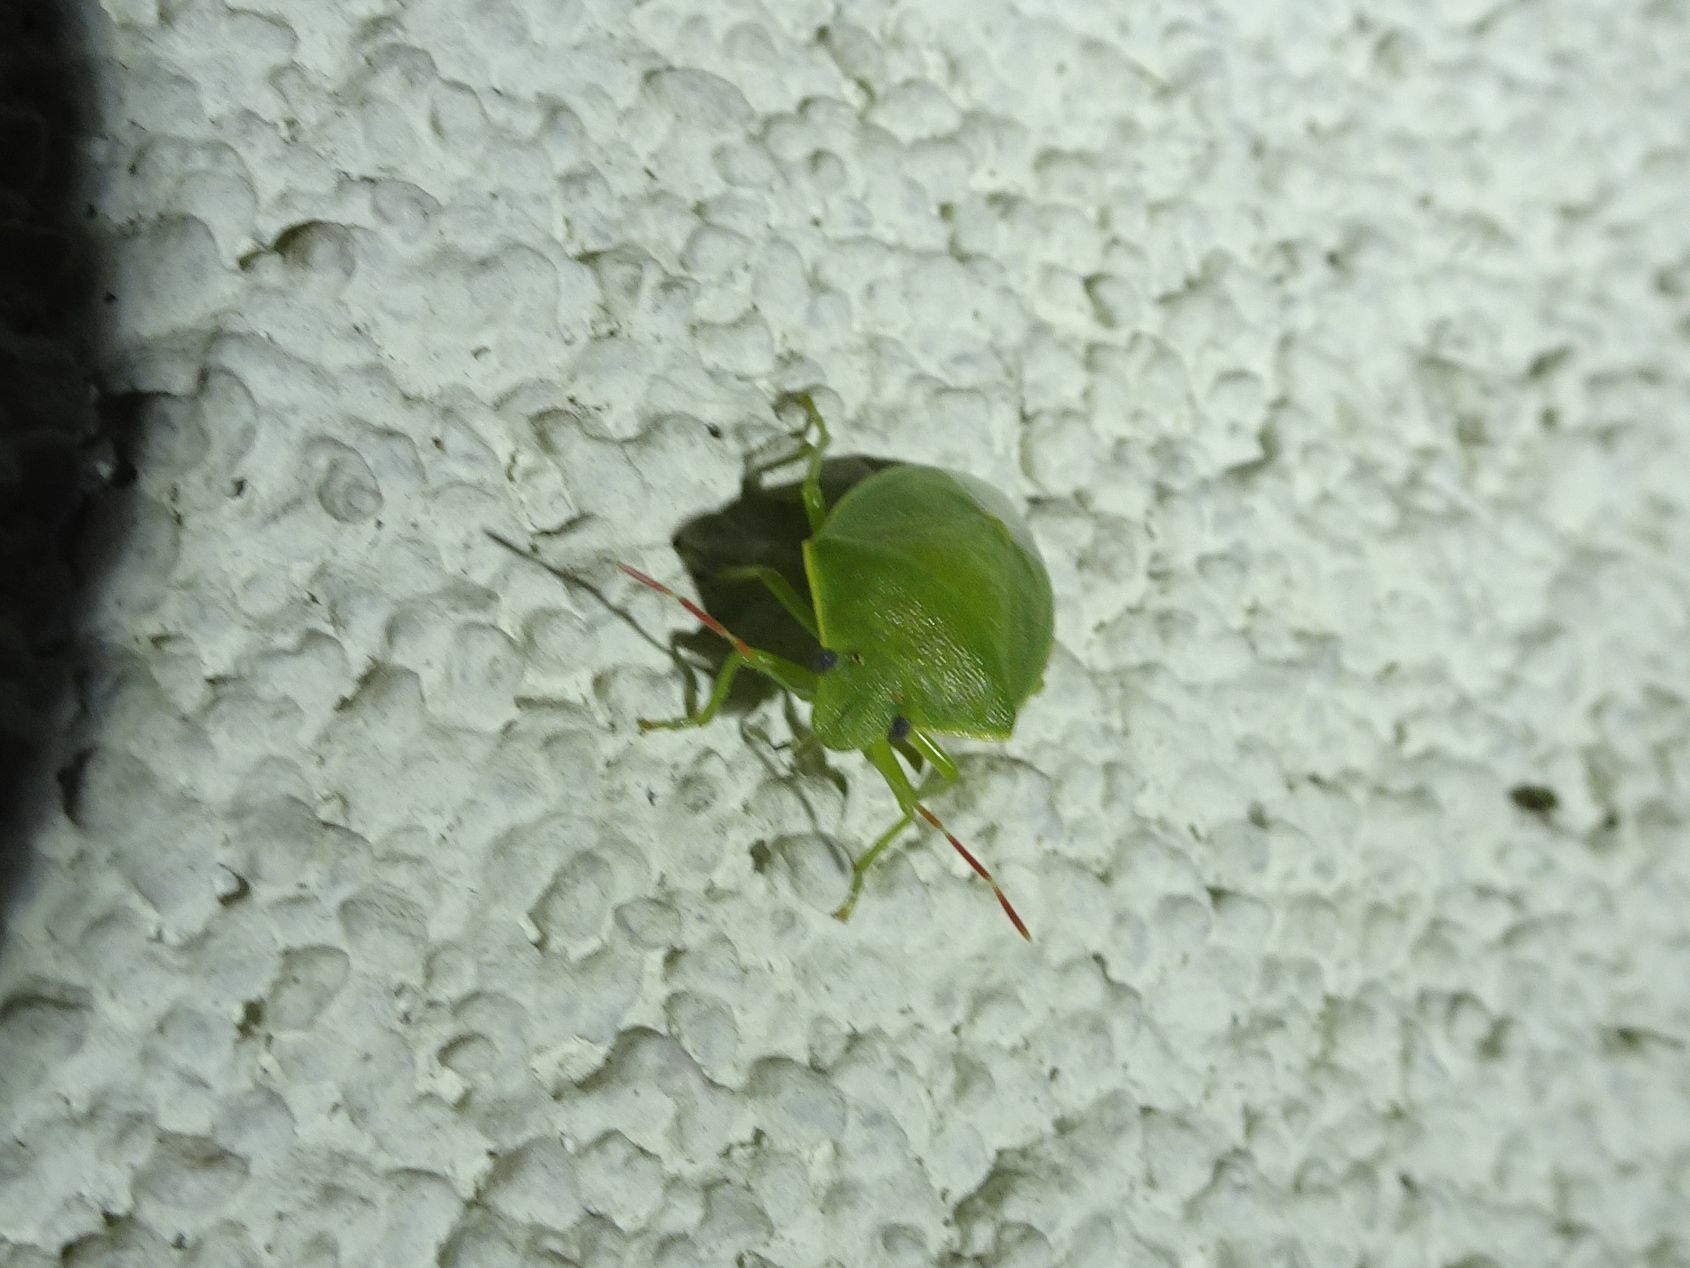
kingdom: Animalia
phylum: Arthropoda
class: Insecta
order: Hemiptera
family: Pentatomidae
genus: Acrosternum
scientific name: Acrosternum heegeri
